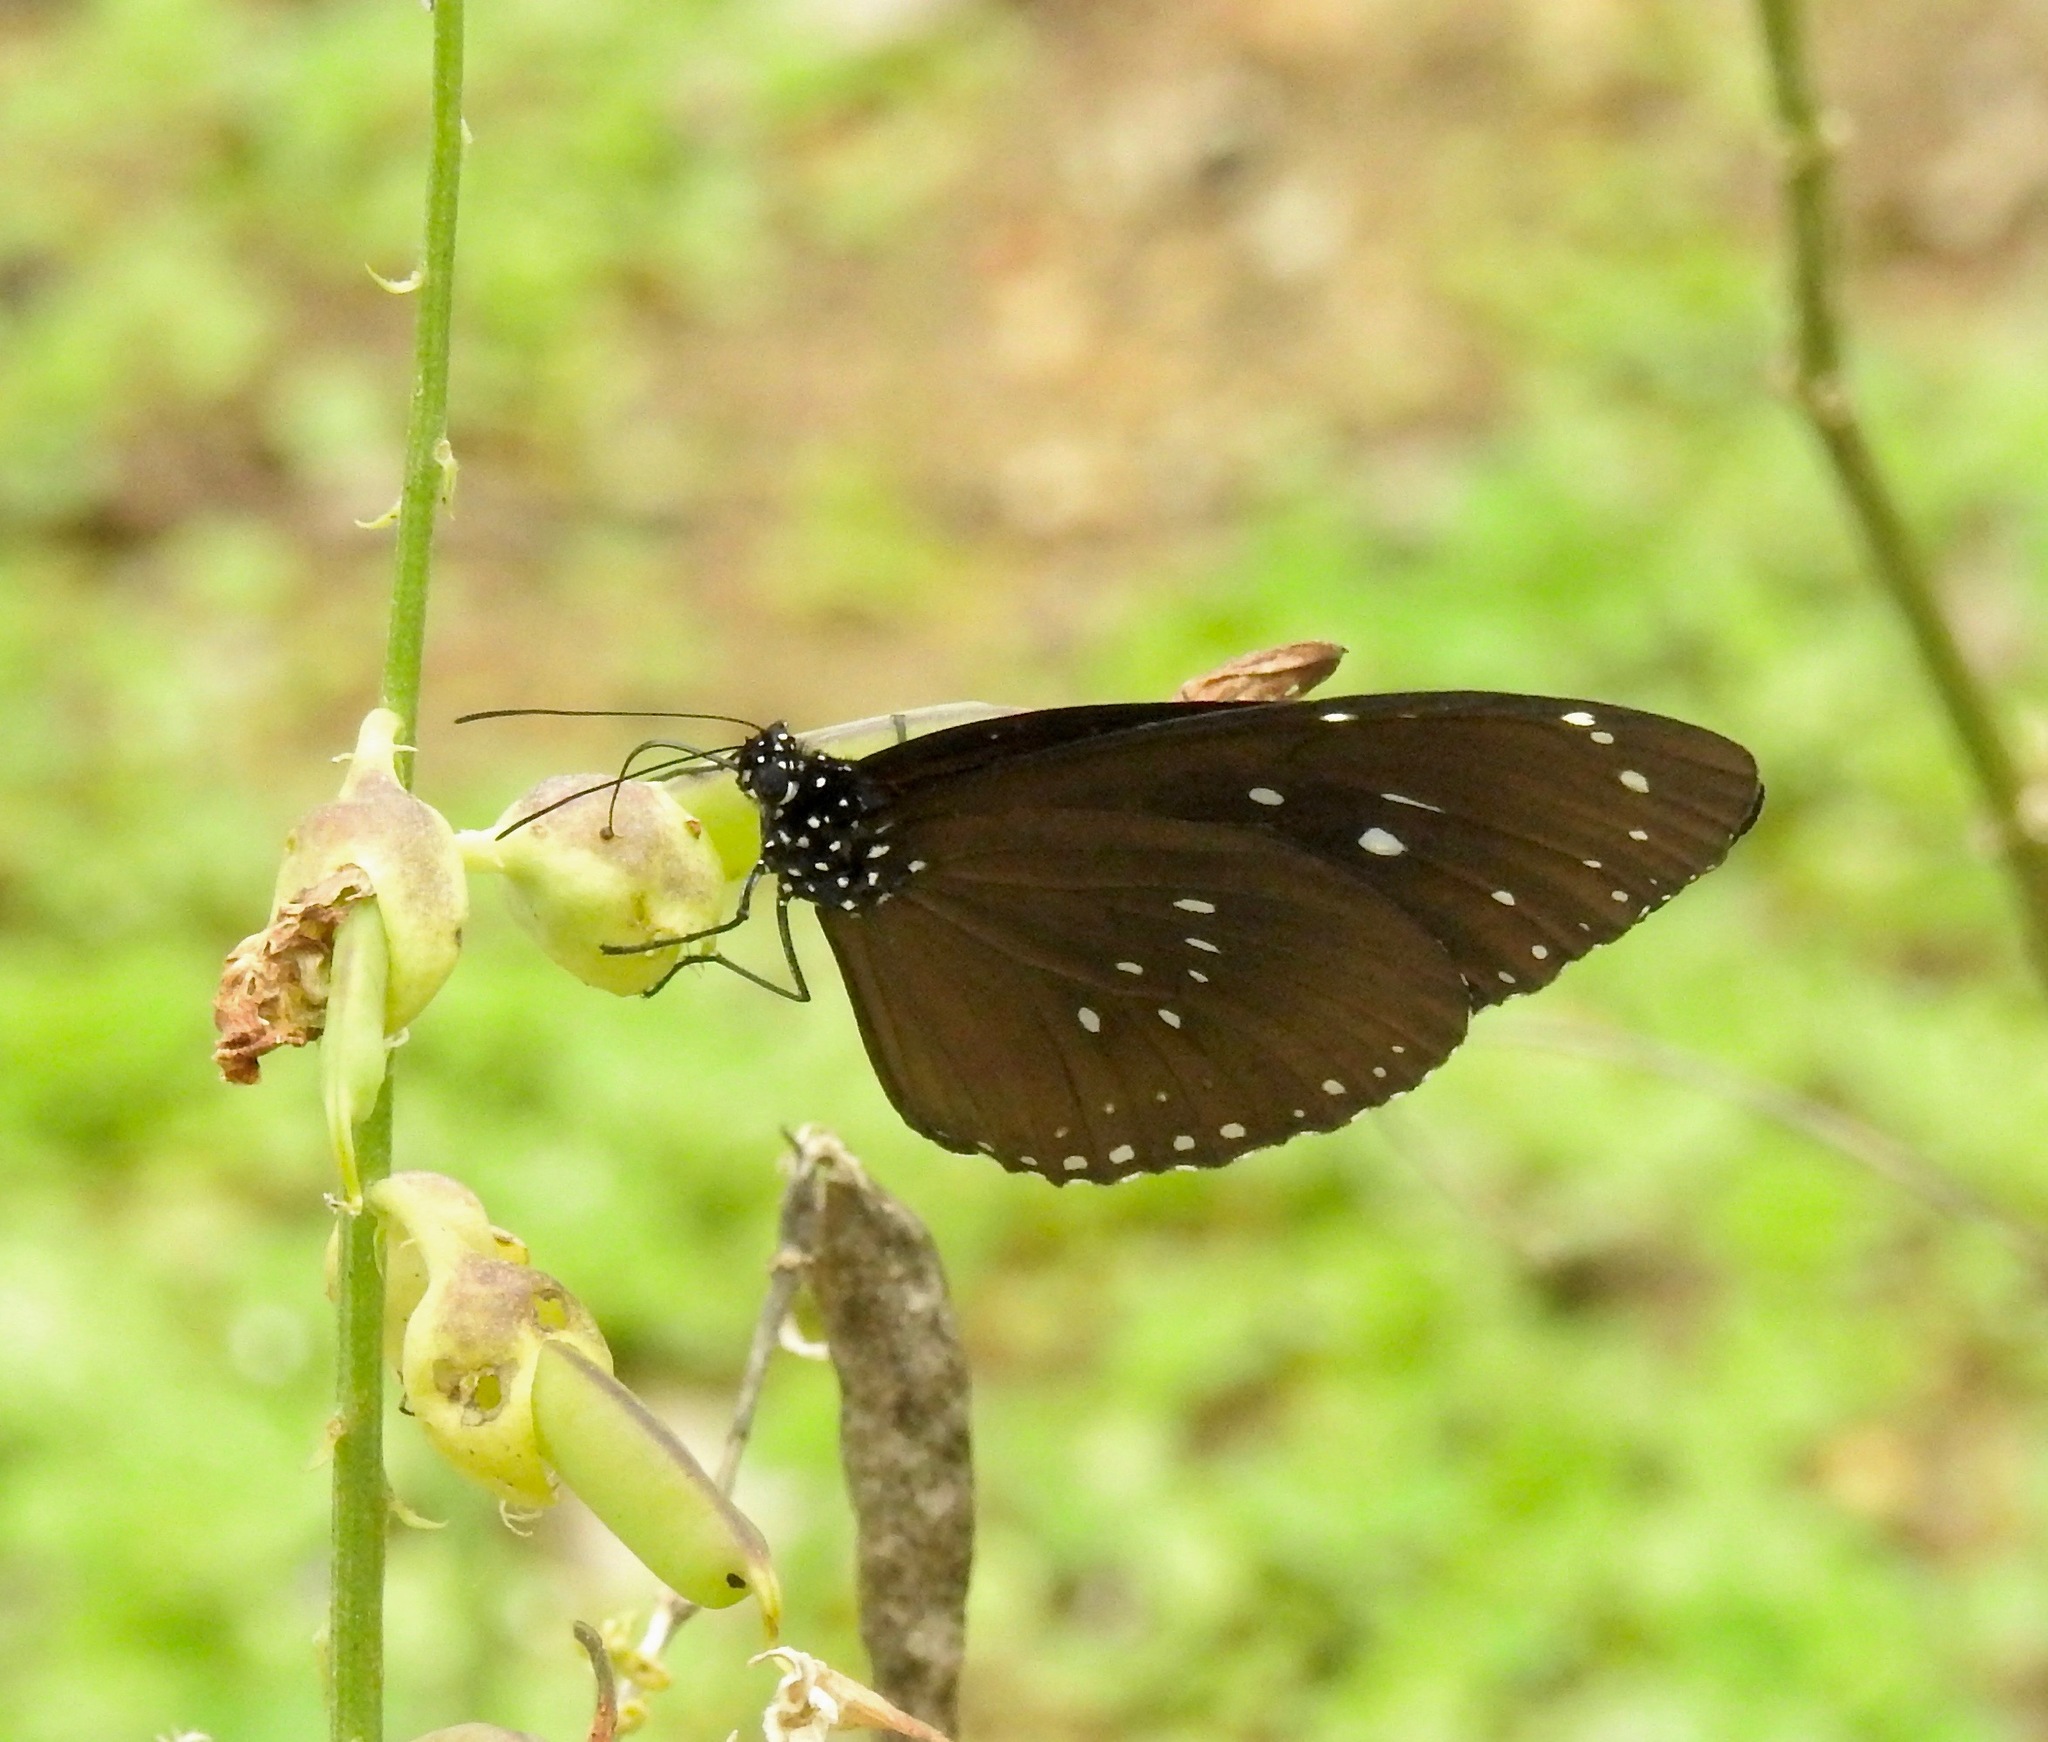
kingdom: Animalia
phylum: Arthropoda
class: Insecta
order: Lepidoptera
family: Nymphalidae
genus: Euploea
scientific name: Euploea core
